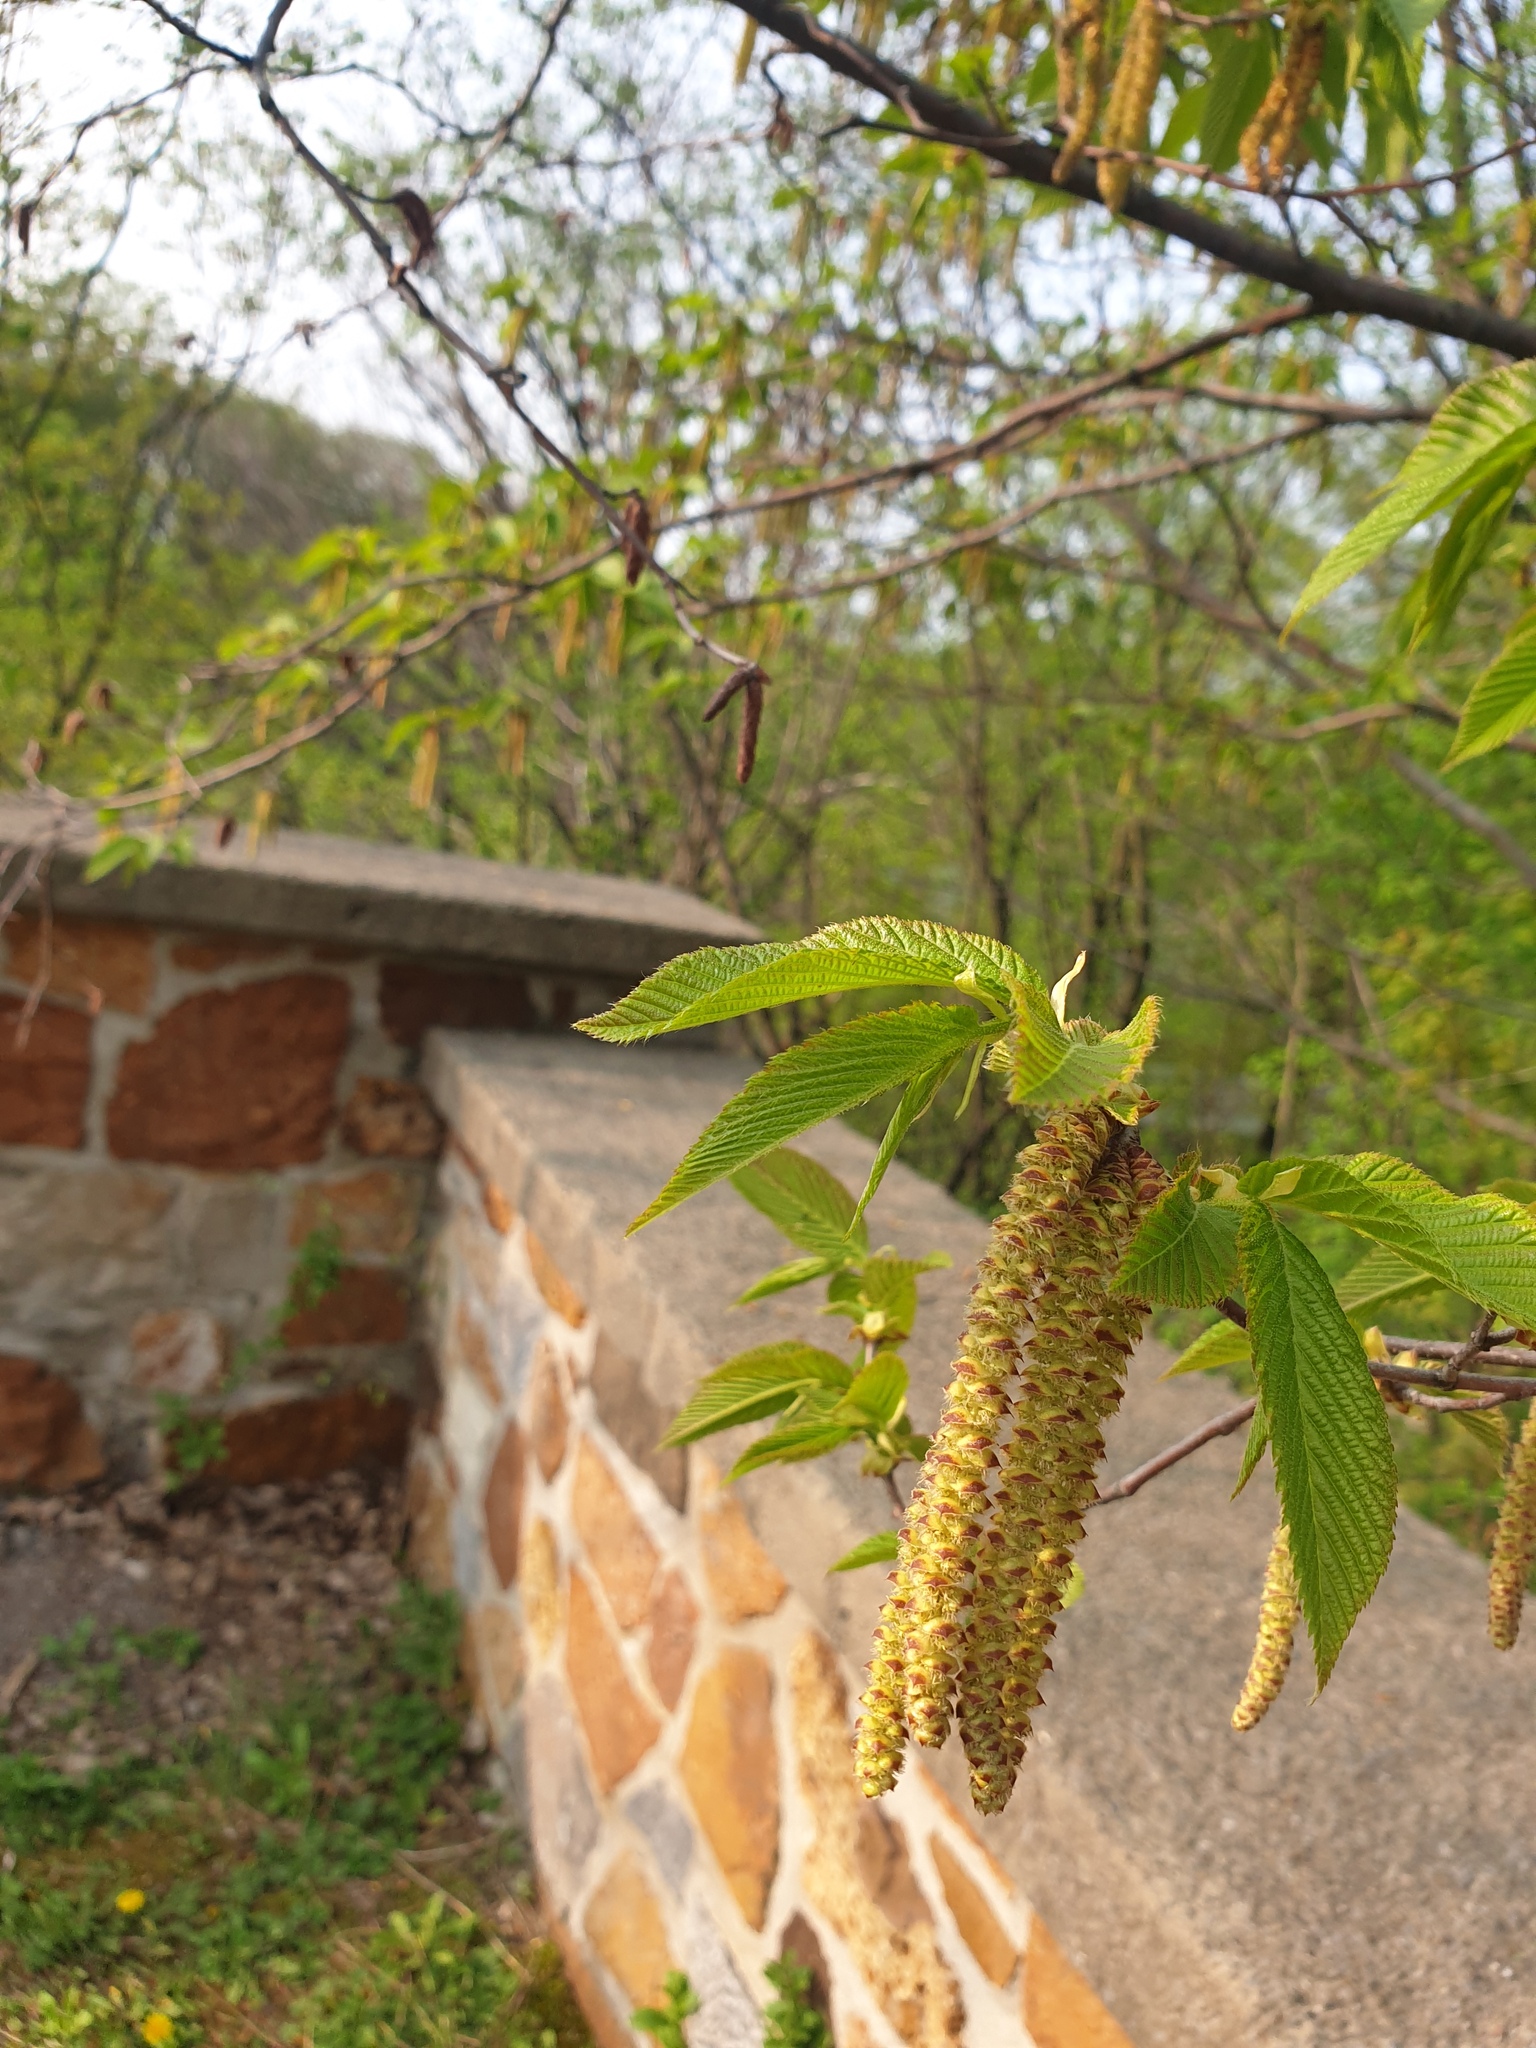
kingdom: Plantae
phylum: Tracheophyta
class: Magnoliopsida
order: Fagales
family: Betulaceae
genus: Ostrya
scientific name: Ostrya virginiana
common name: Ironwood
